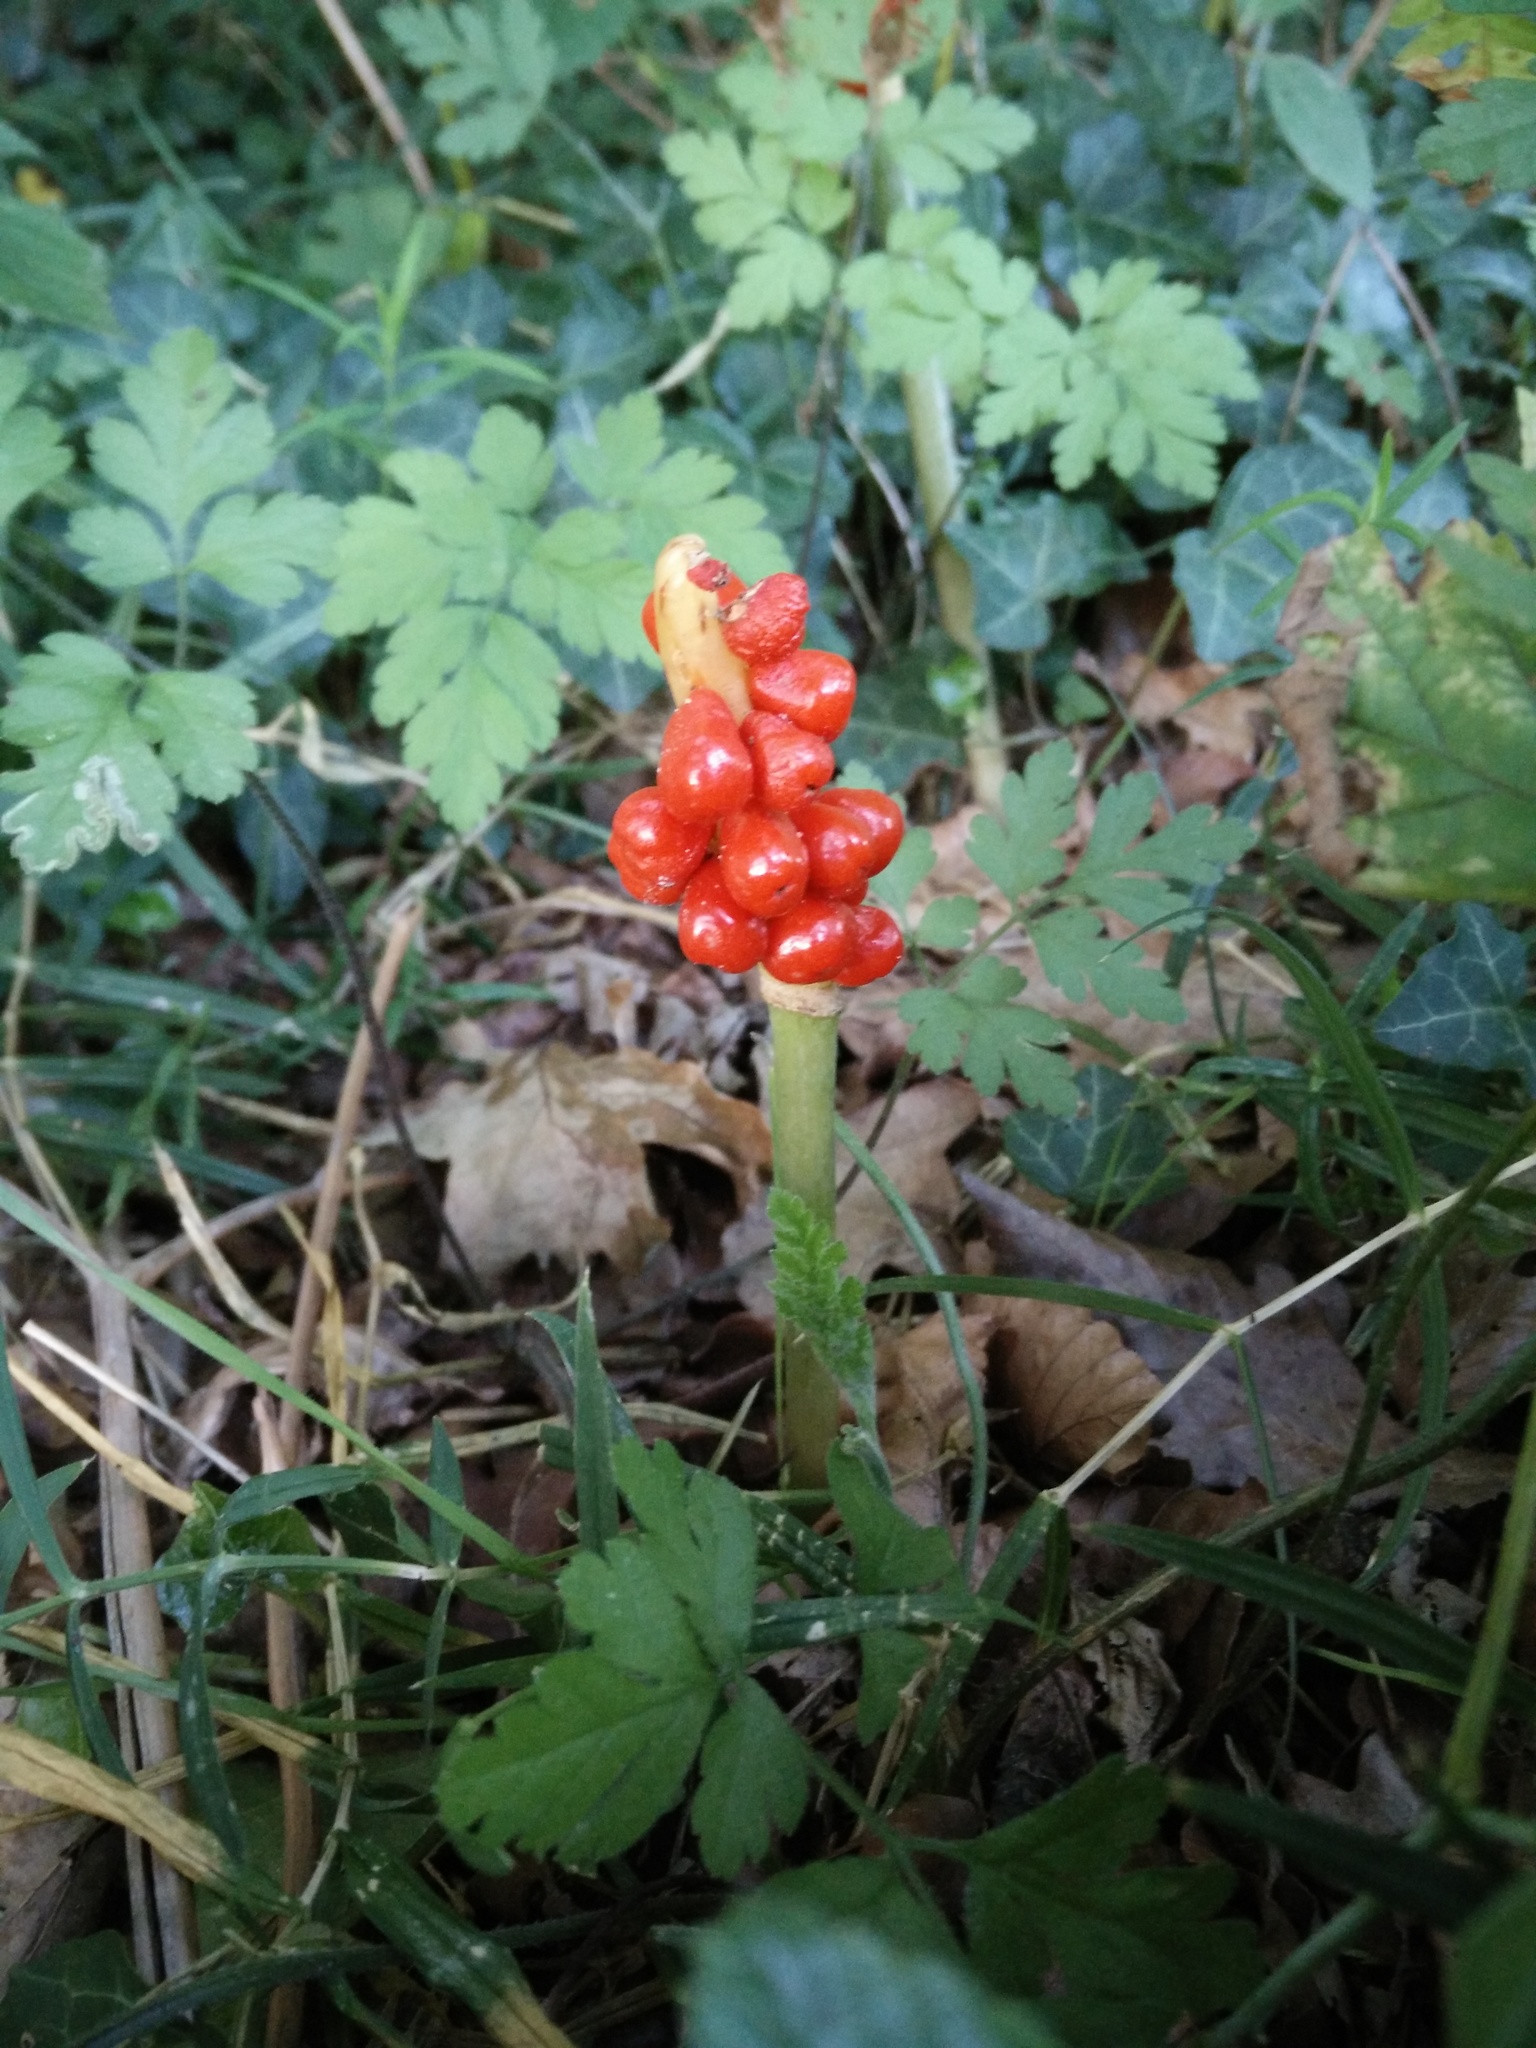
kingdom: Plantae
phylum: Tracheophyta
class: Liliopsida
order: Alismatales
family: Araceae
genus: Arum
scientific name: Arum maculatum
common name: Lords-and-ladies
